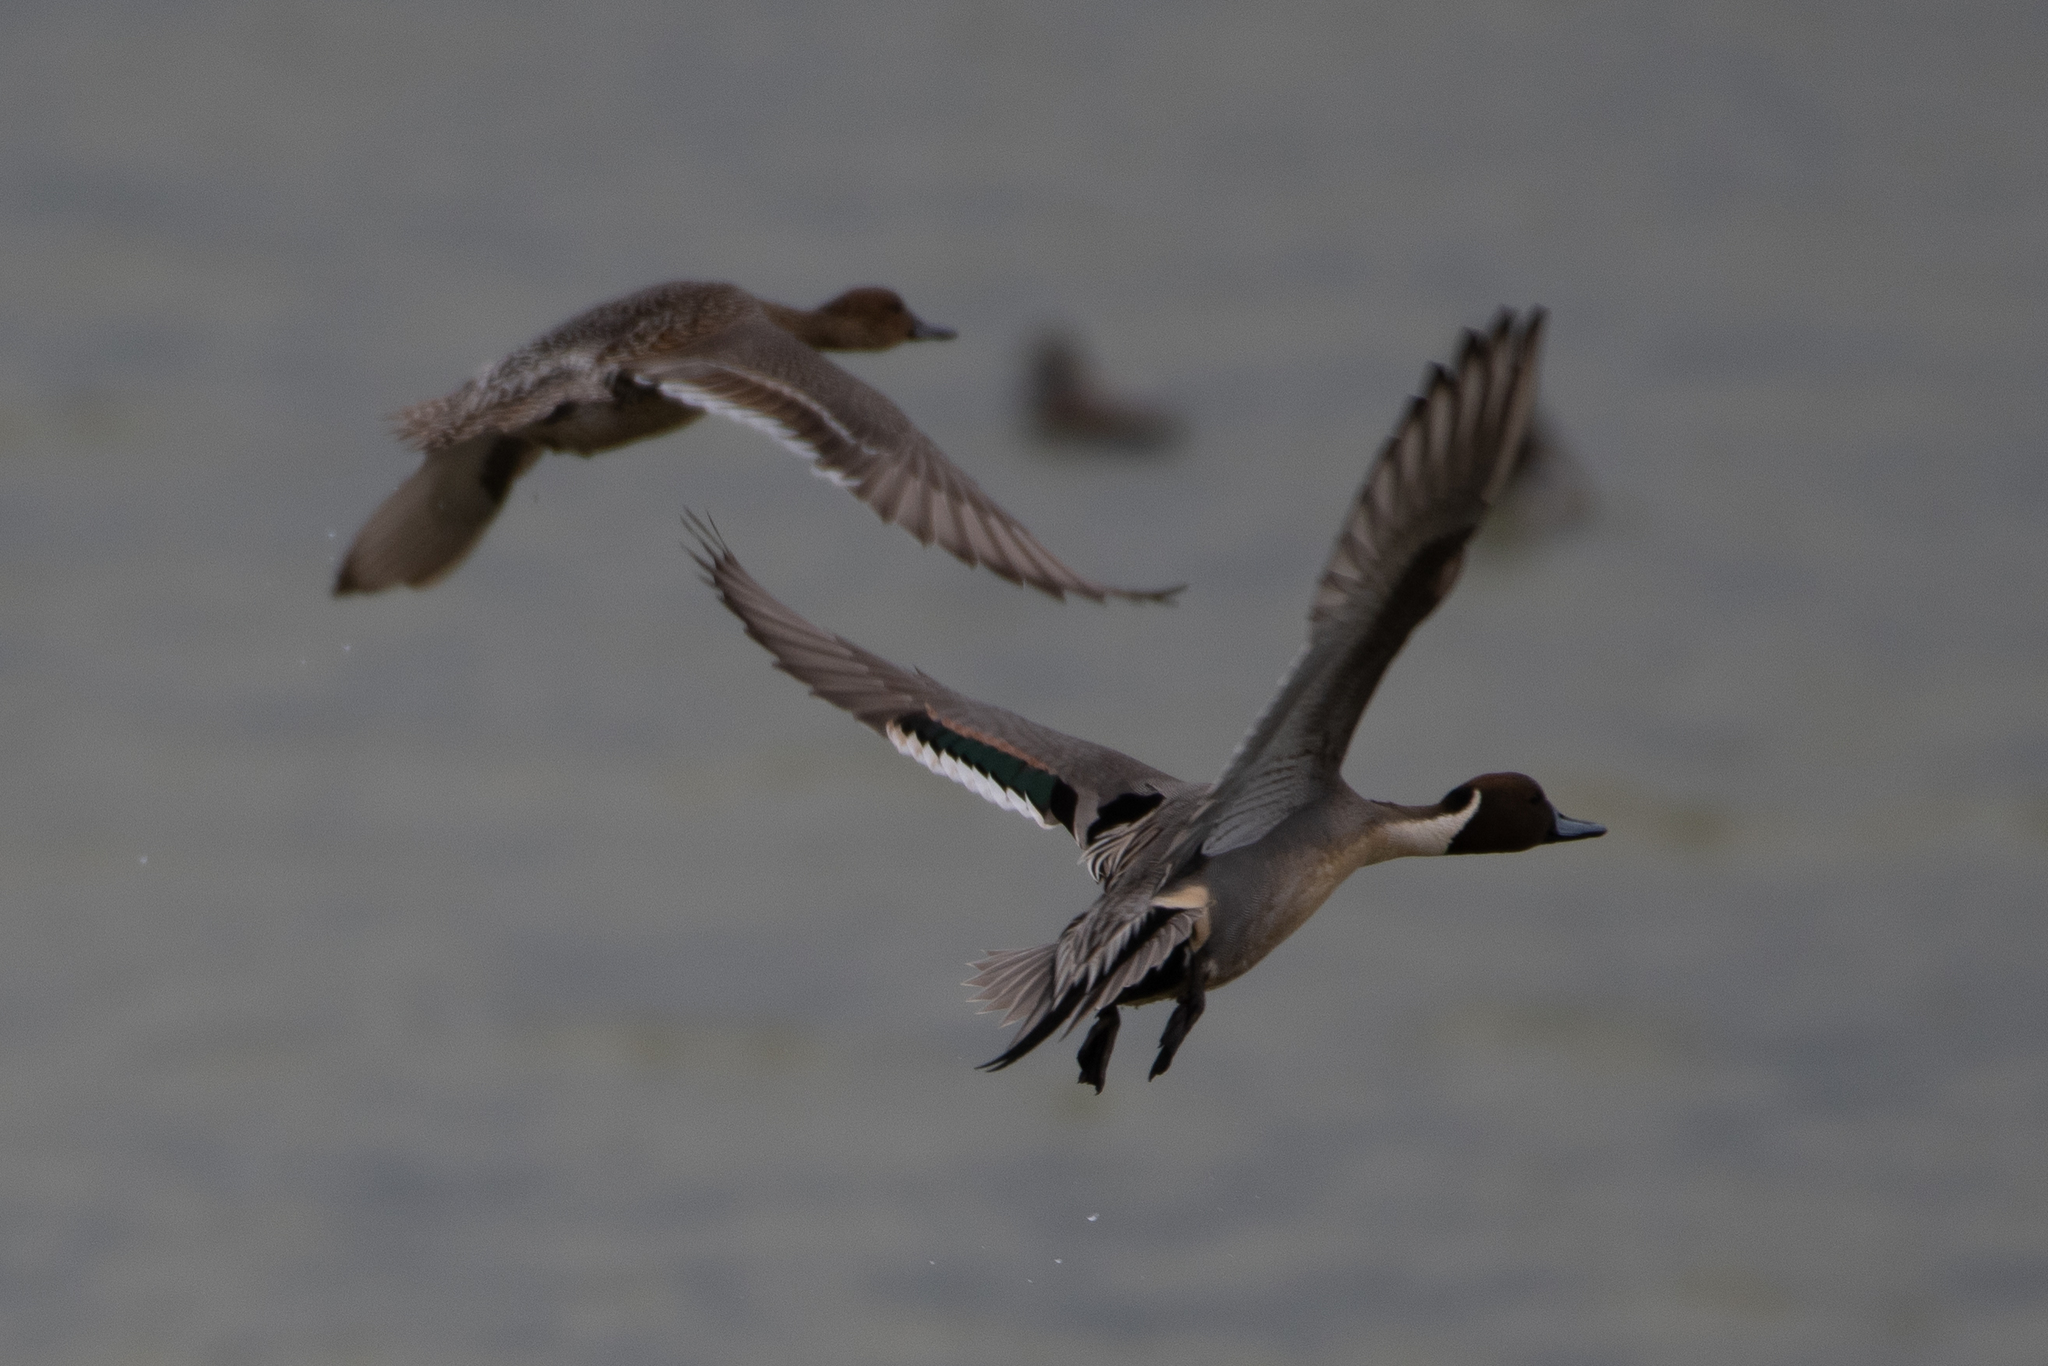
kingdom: Animalia
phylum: Chordata
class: Aves
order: Anseriformes
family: Anatidae
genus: Anas
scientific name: Anas acuta
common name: Northern pintail
